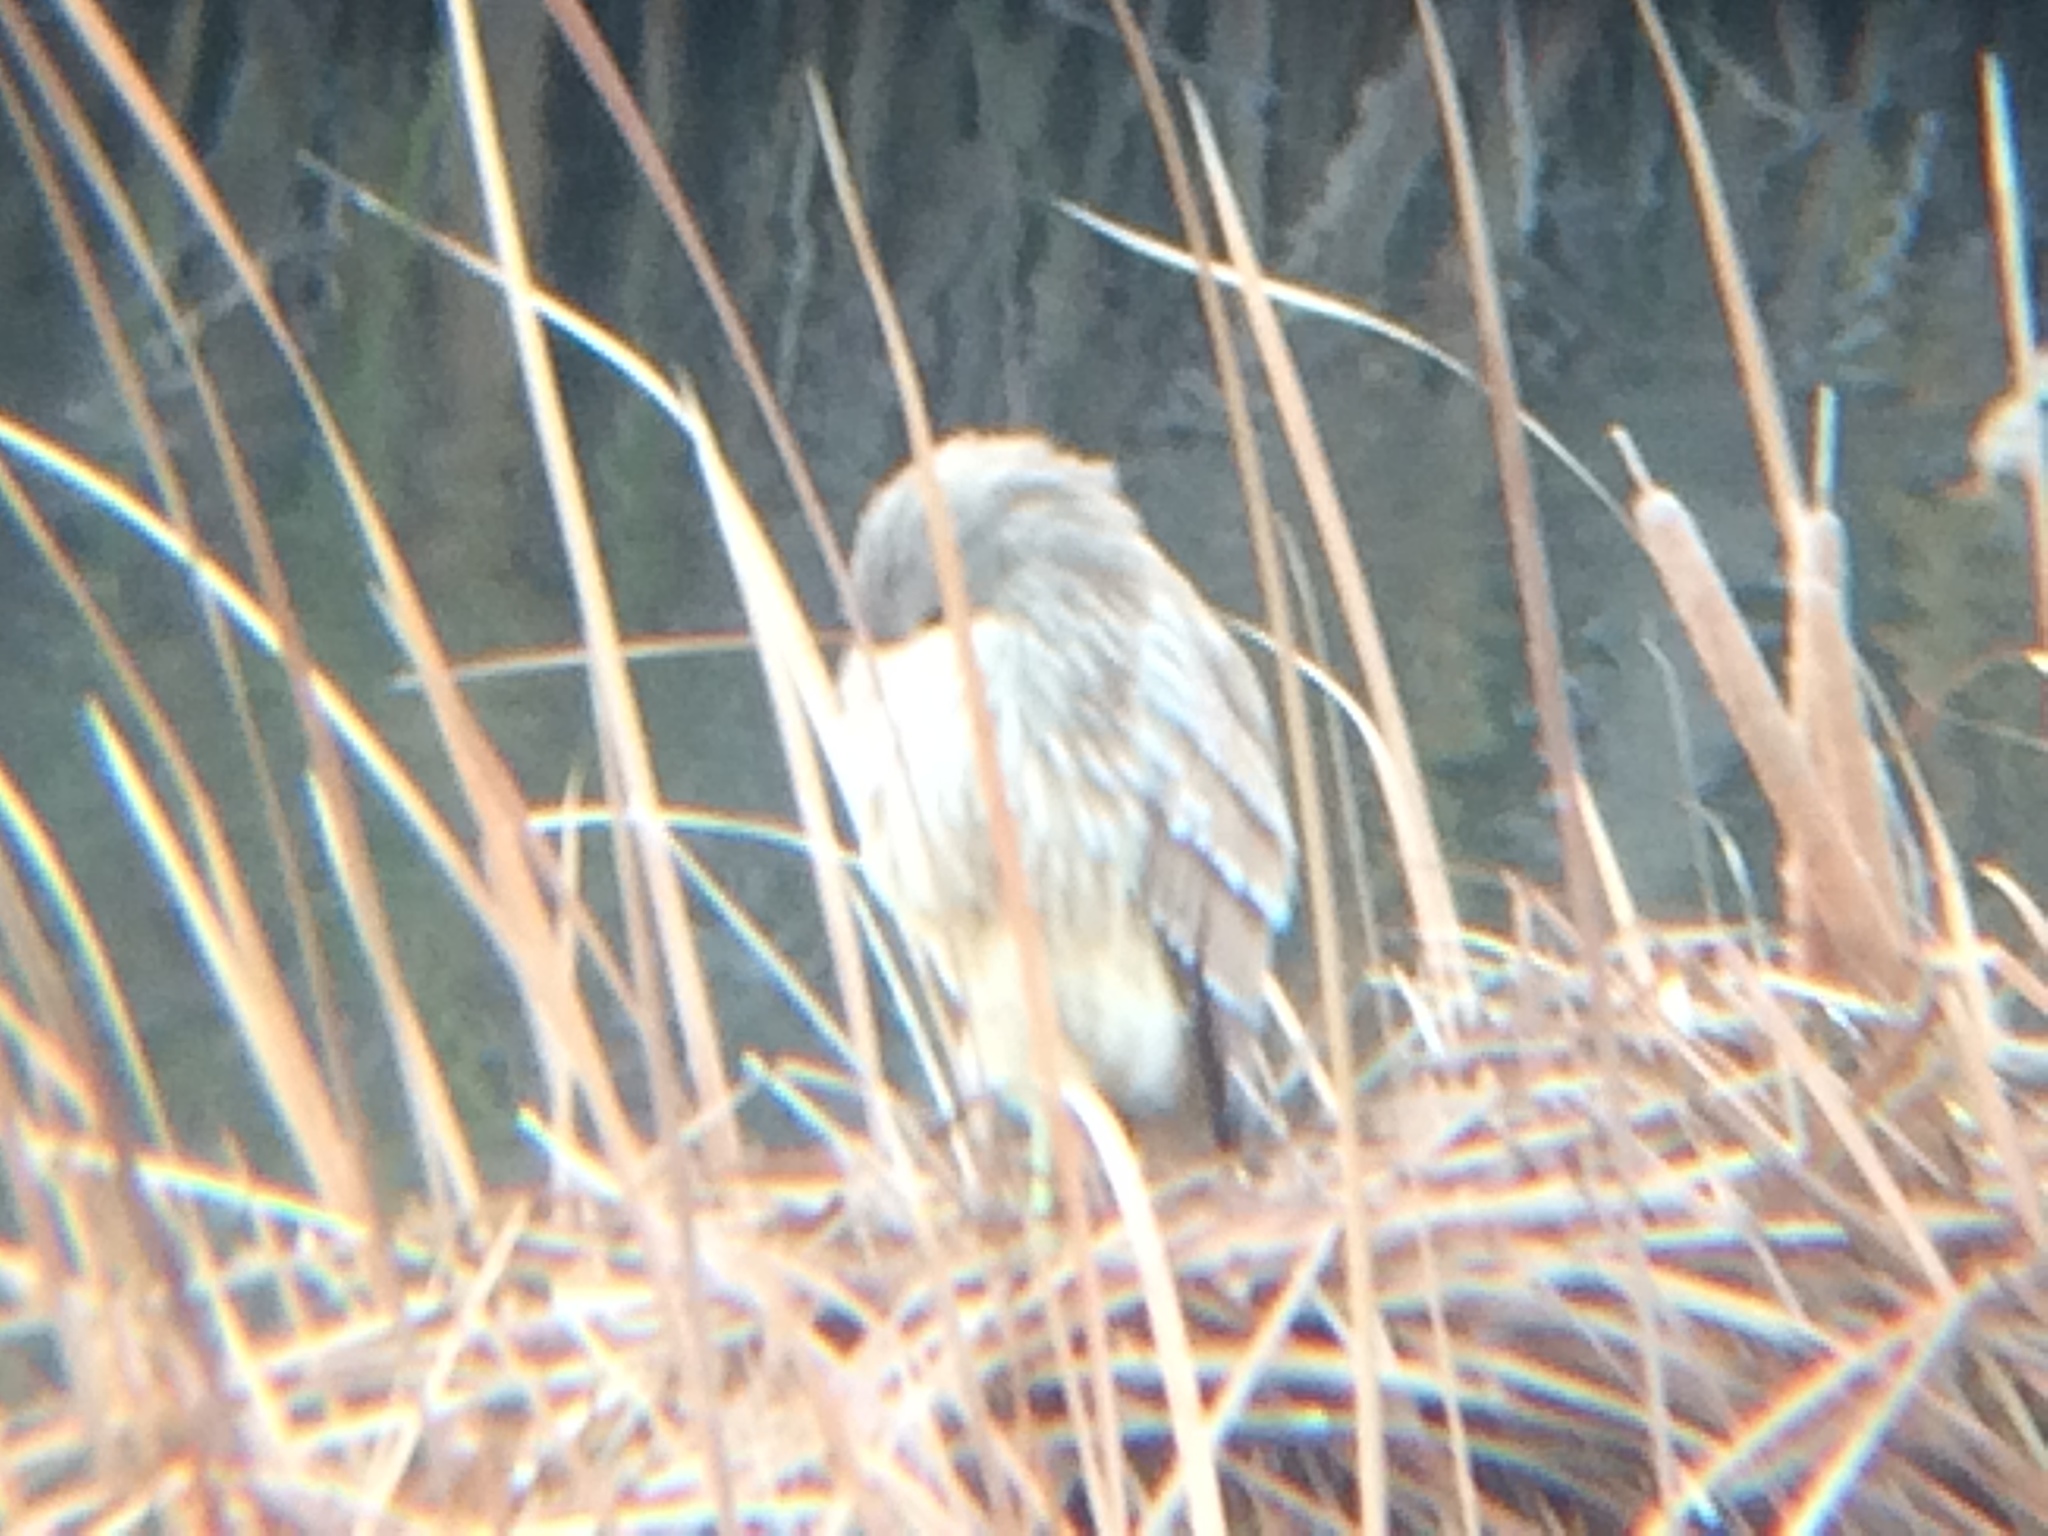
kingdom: Animalia
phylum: Chordata
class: Aves
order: Pelecaniformes
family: Ardeidae
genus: Nycticorax
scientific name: Nycticorax nycticorax
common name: Black-crowned night heron
